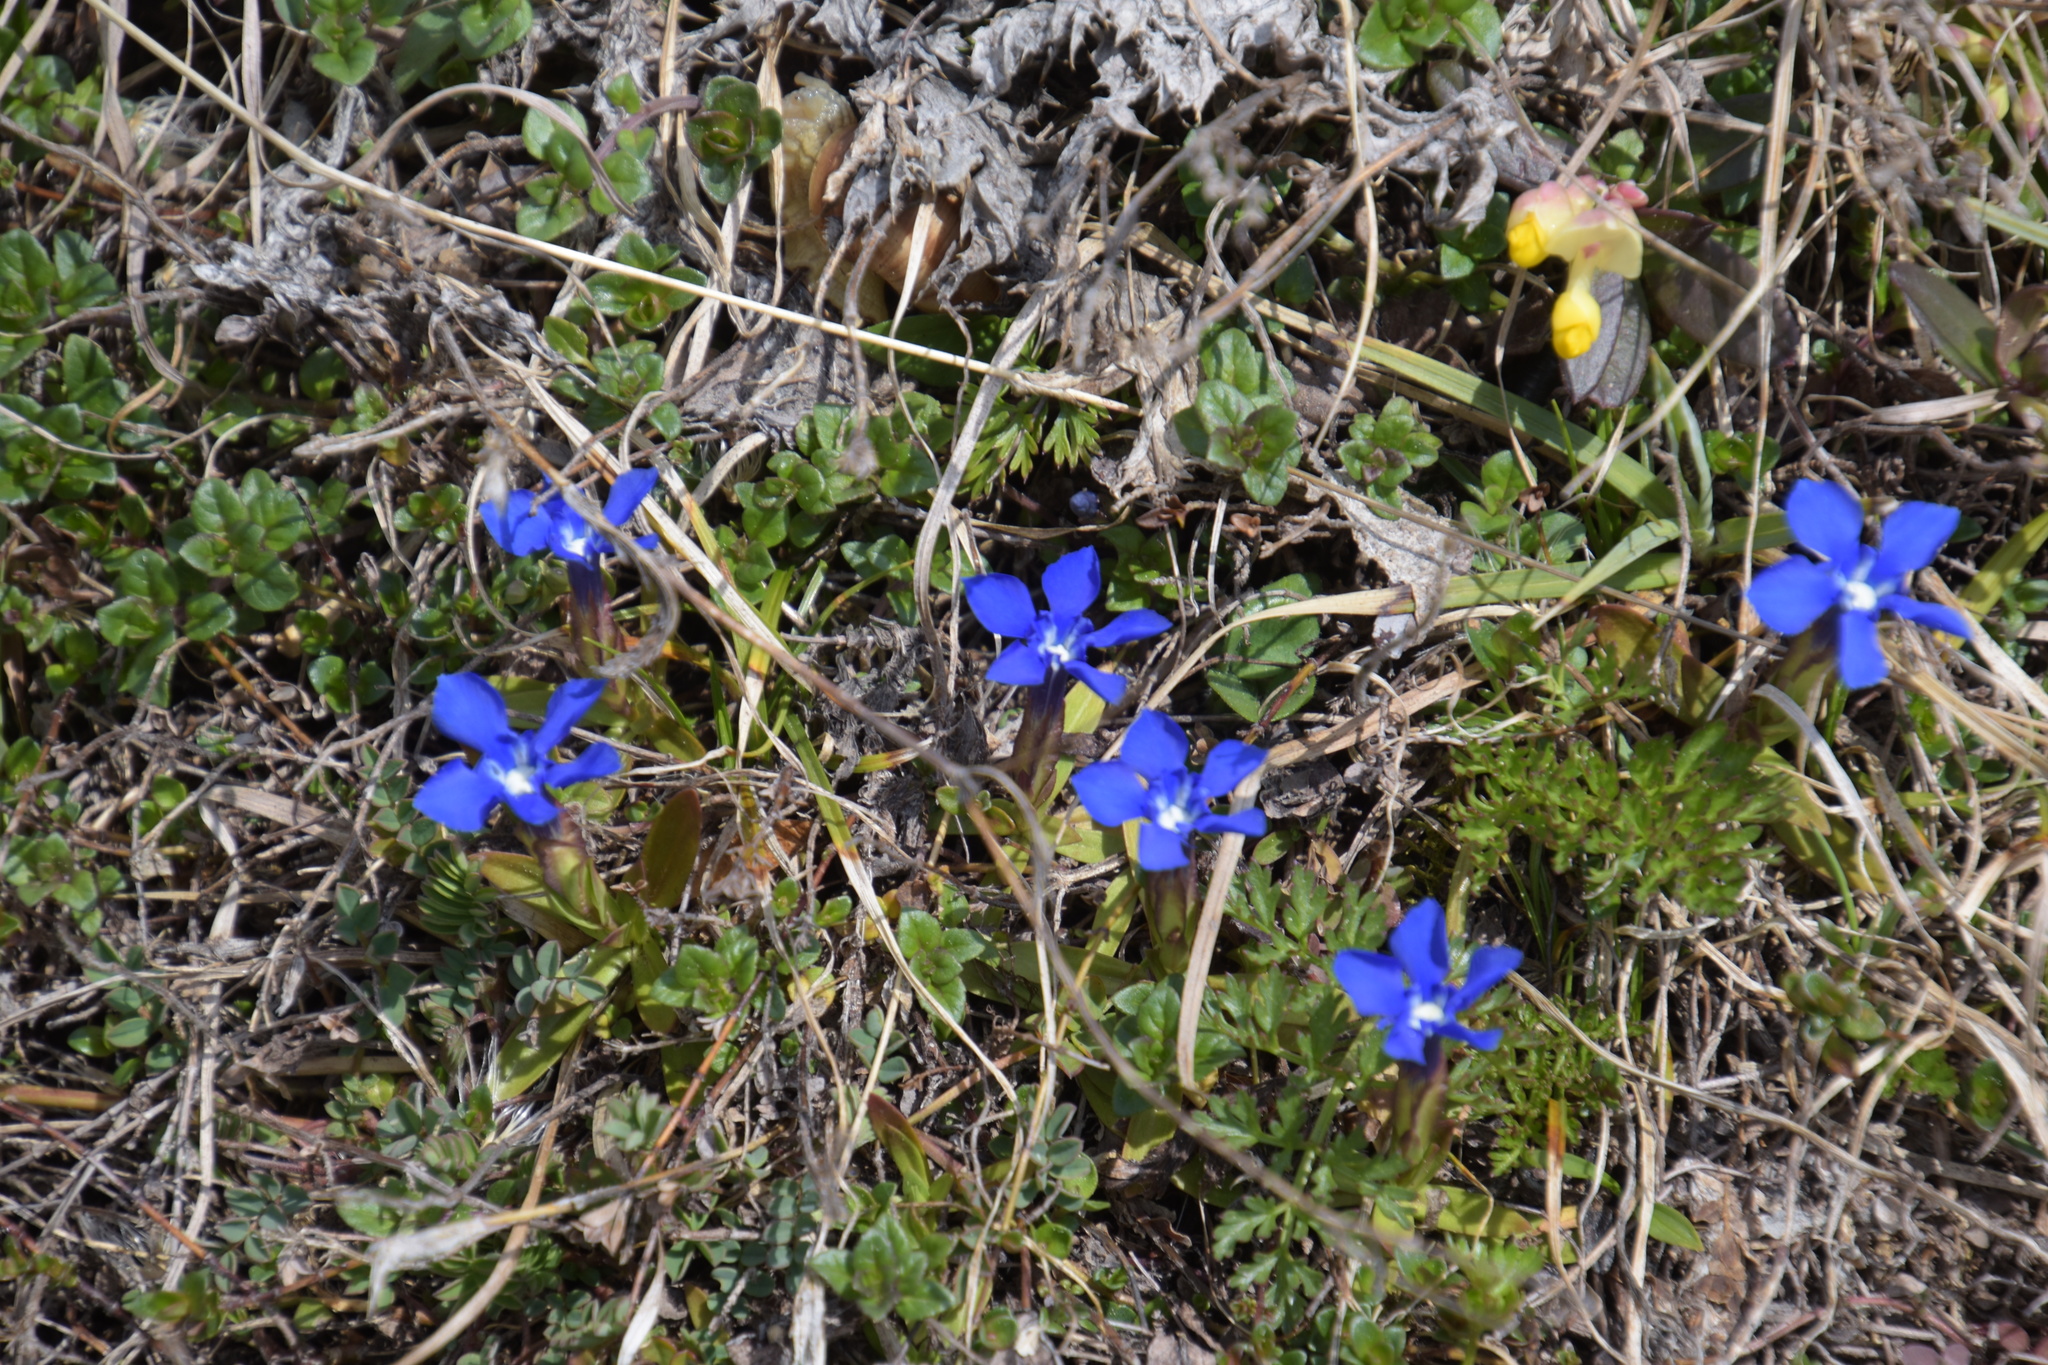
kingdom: Plantae
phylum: Tracheophyta
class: Magnoliopsida
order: Gentianales
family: Gentianaceae
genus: Gentiana
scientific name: Gentiana verna
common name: Spring gentian
